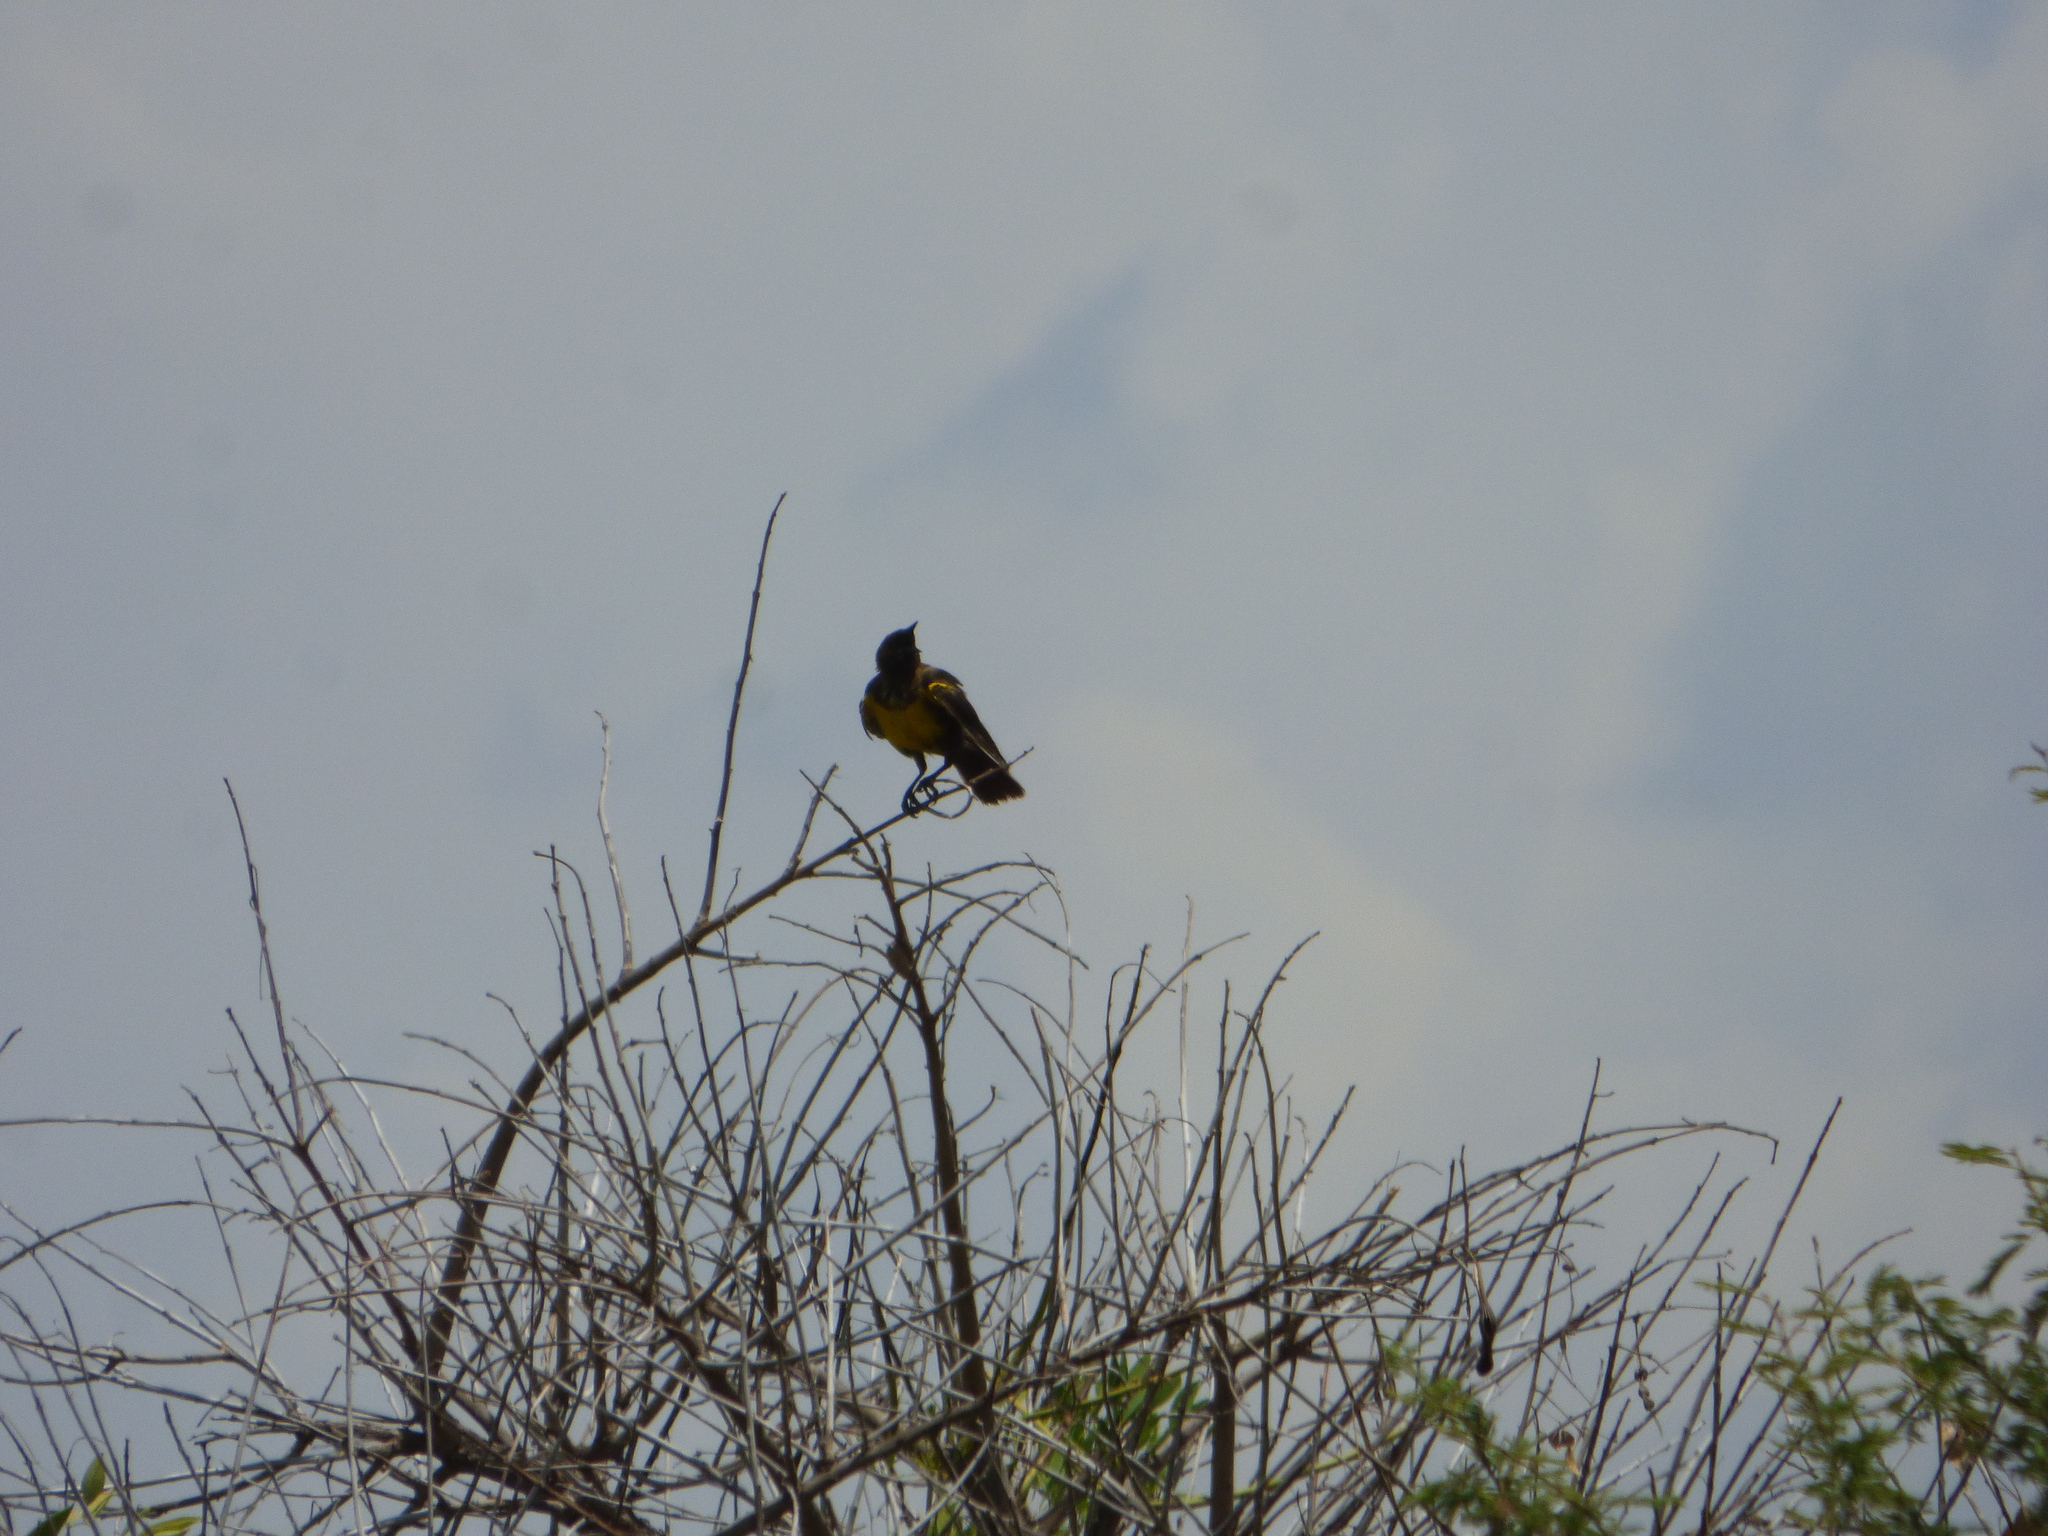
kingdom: Animalia
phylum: Chordata
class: Aves
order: Passeriformes
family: Icteridae
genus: Pseudoleistes
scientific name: Pseudoleistes virescens
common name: Brown-and-yellow marshbird
